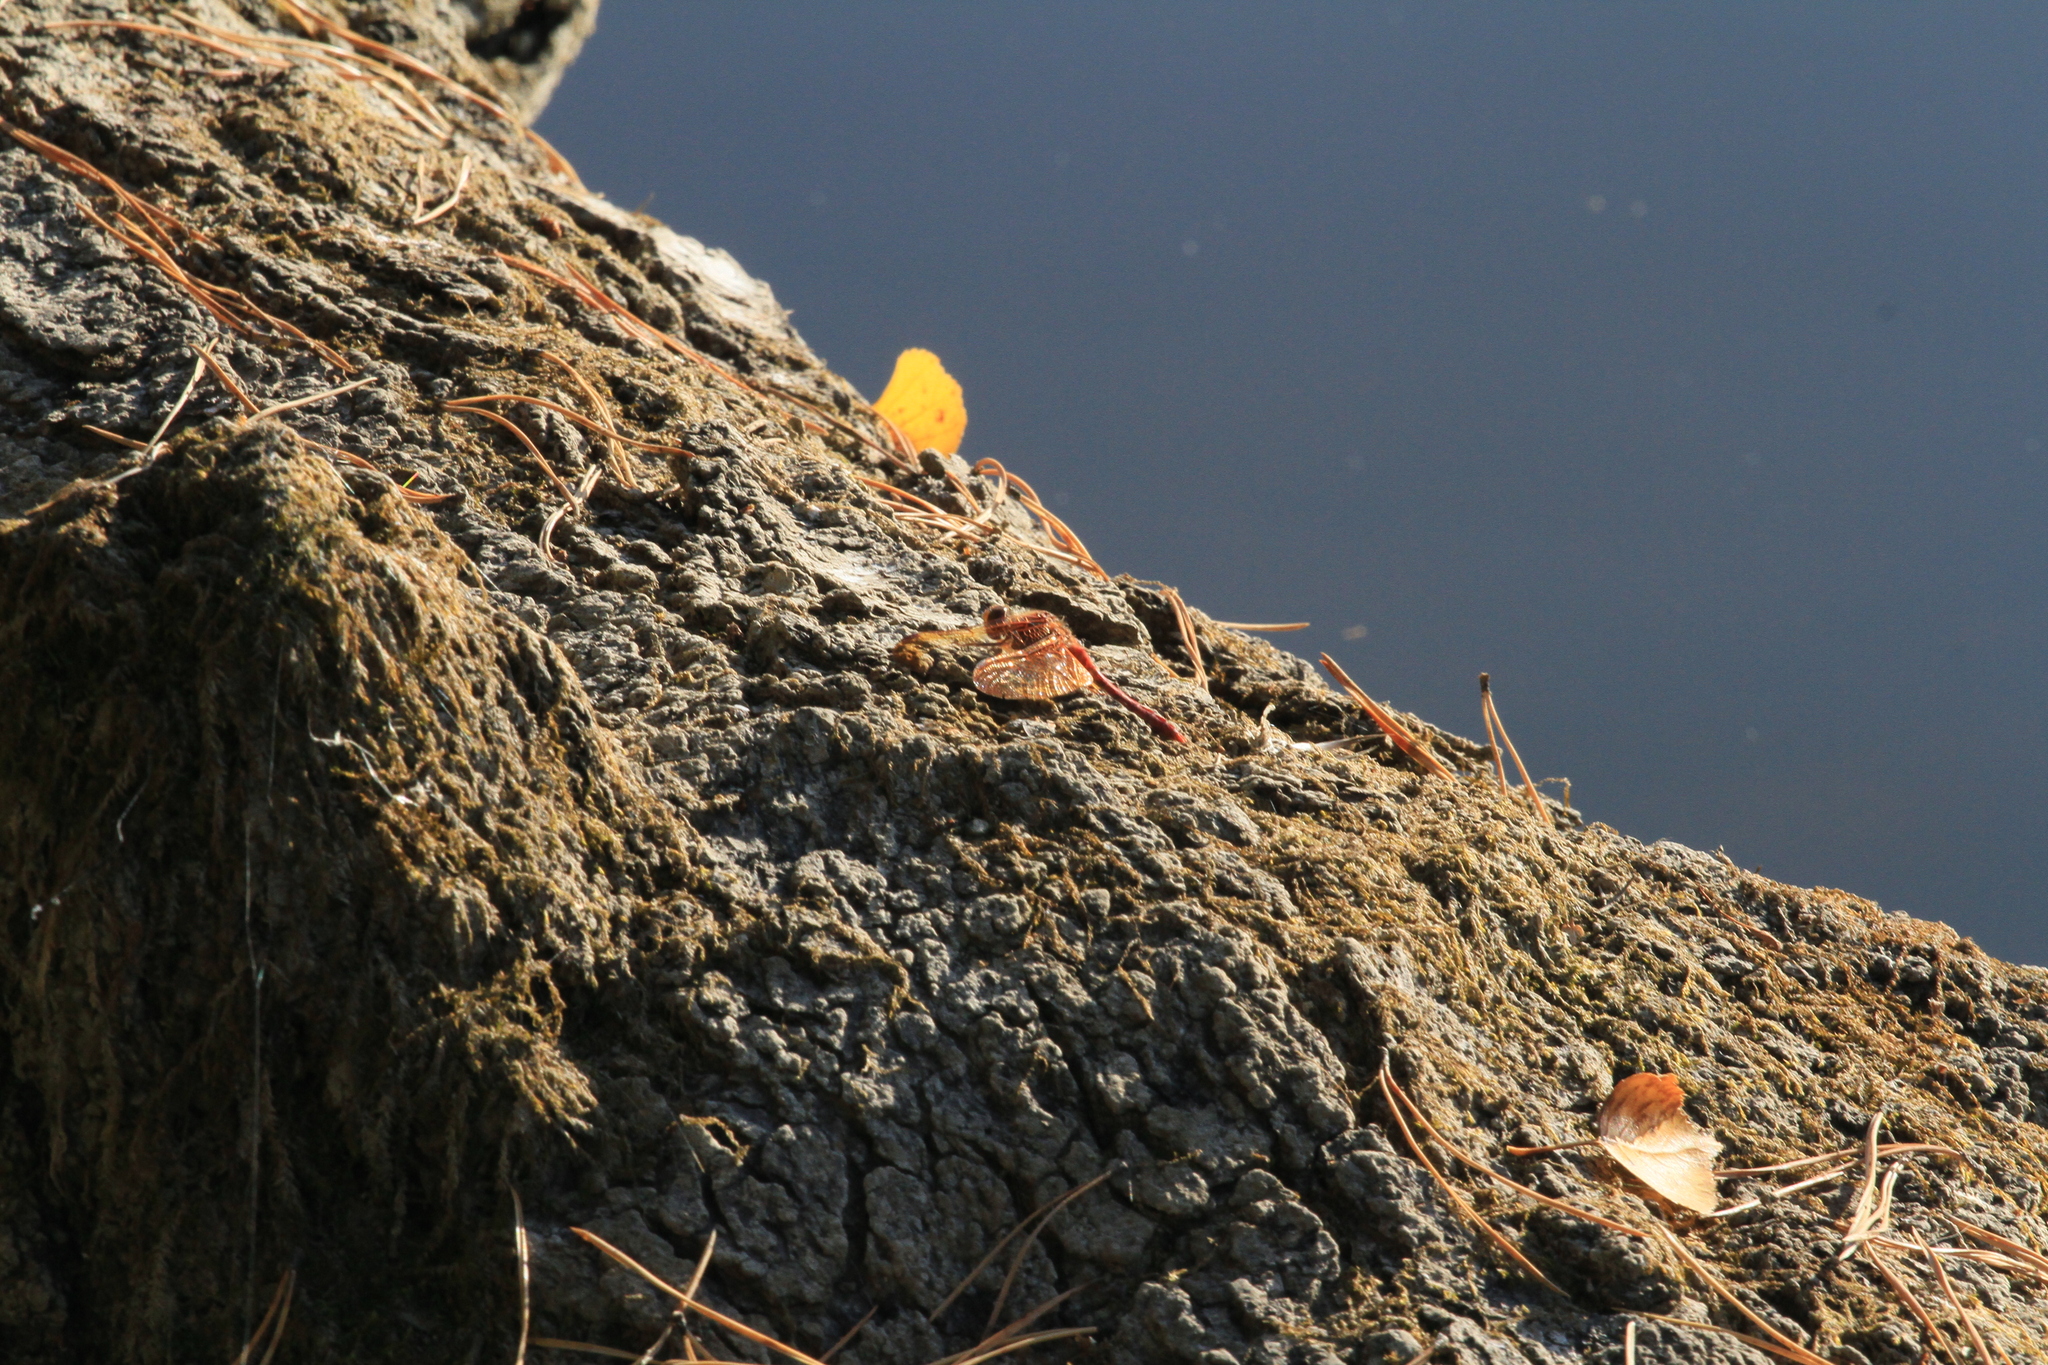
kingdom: Animalia
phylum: Arthropoda
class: Insecta
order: Odonata
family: Libellulidae
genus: Sympetrum
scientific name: Sympetrum croceolum
